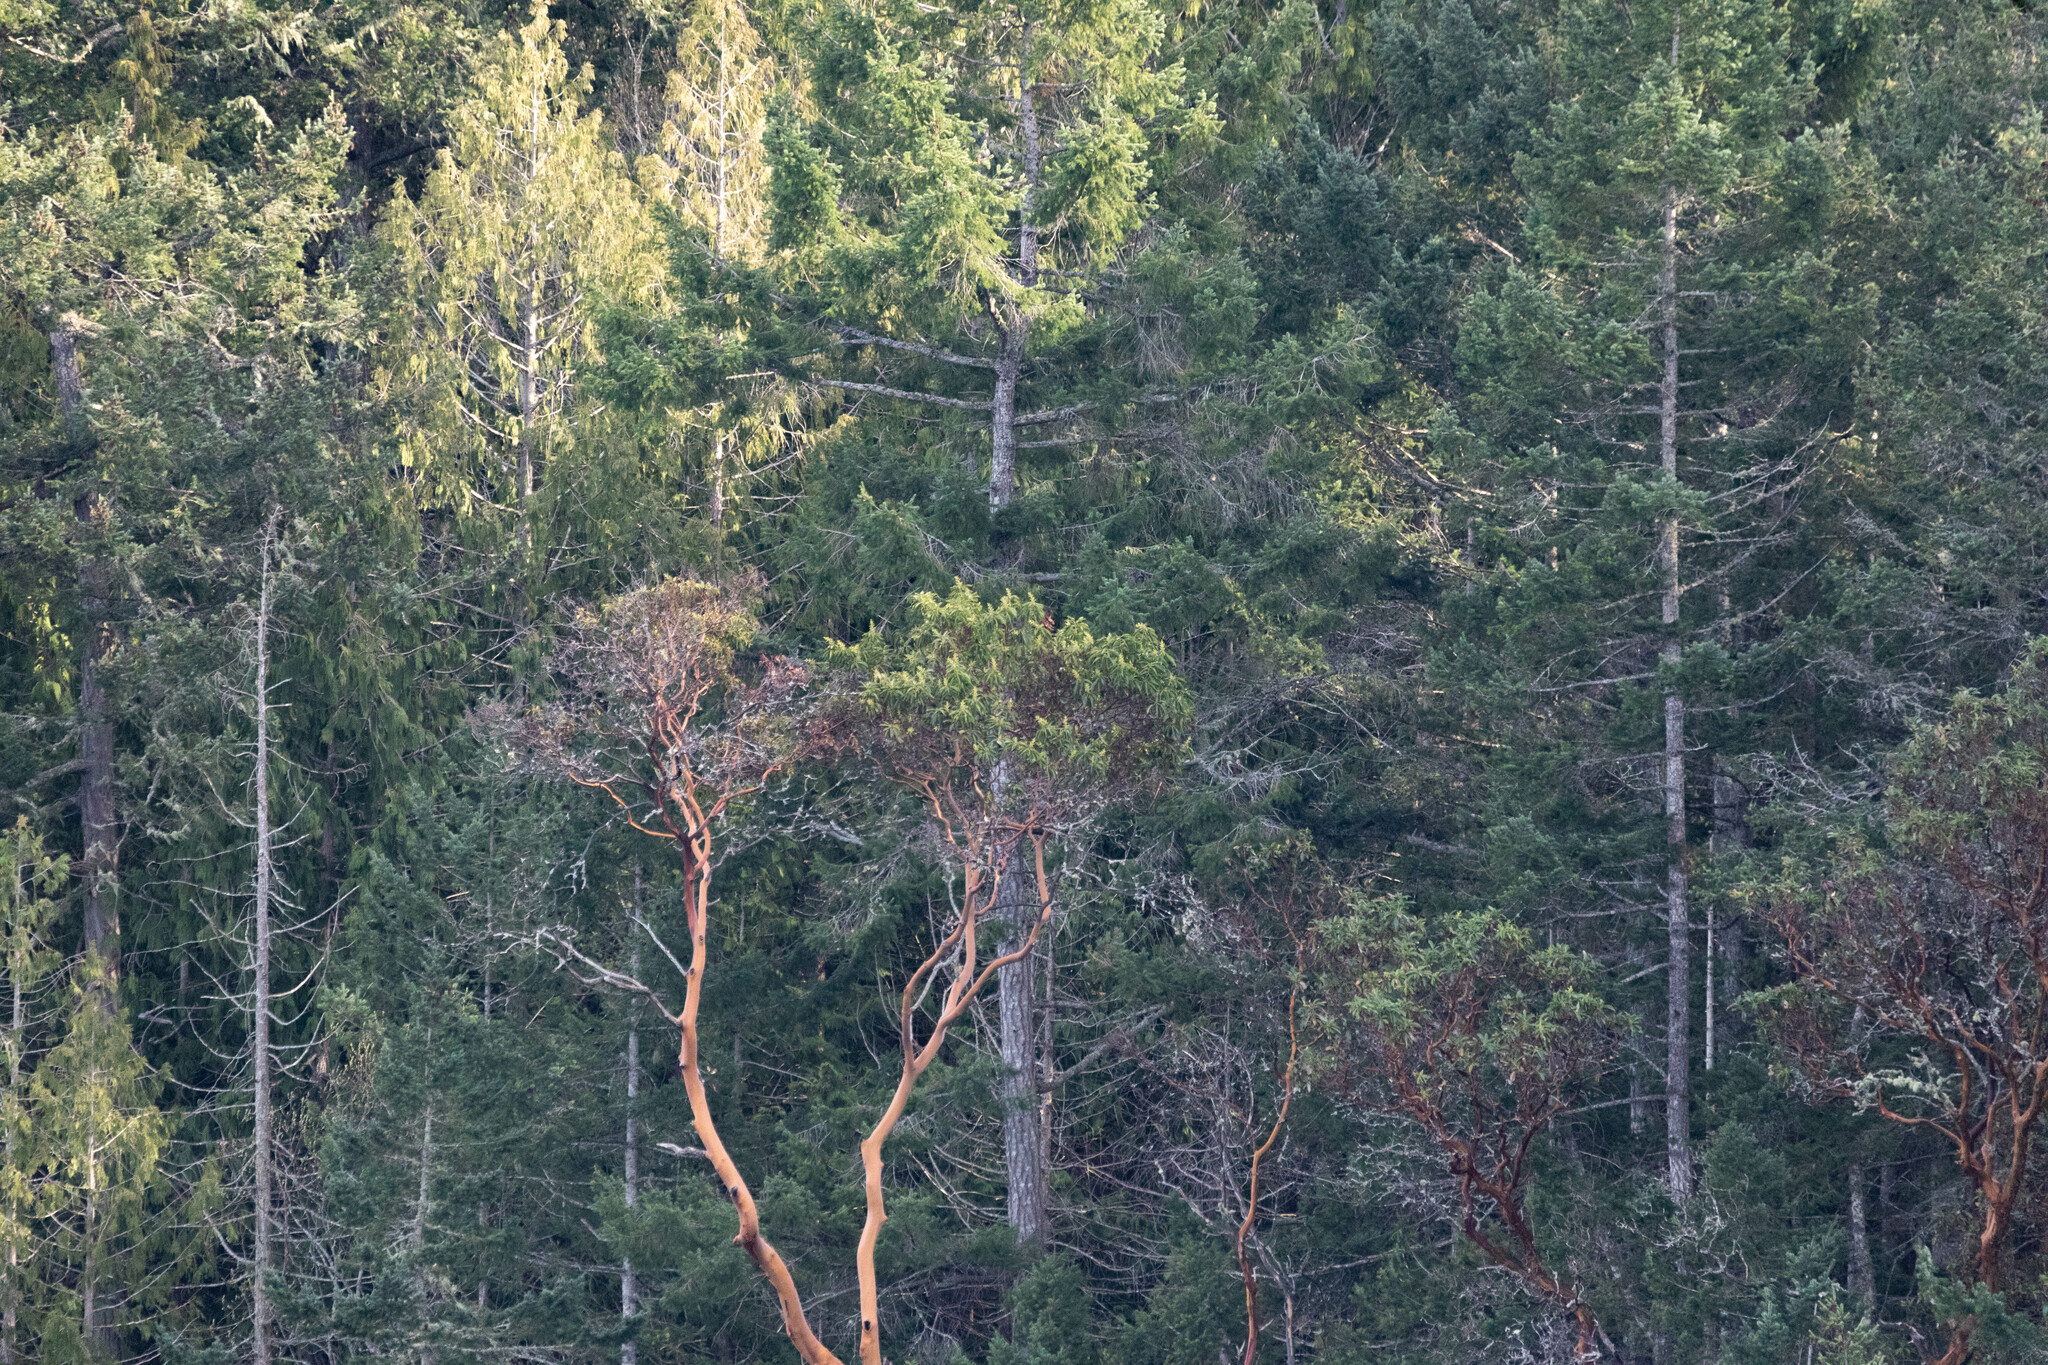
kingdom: Plantae
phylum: Tracheophyta
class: Magnoliopsida
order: Ericales
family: Ericaceae
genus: Arbutus
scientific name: Arbutus menziesii
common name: Pacific madrone
